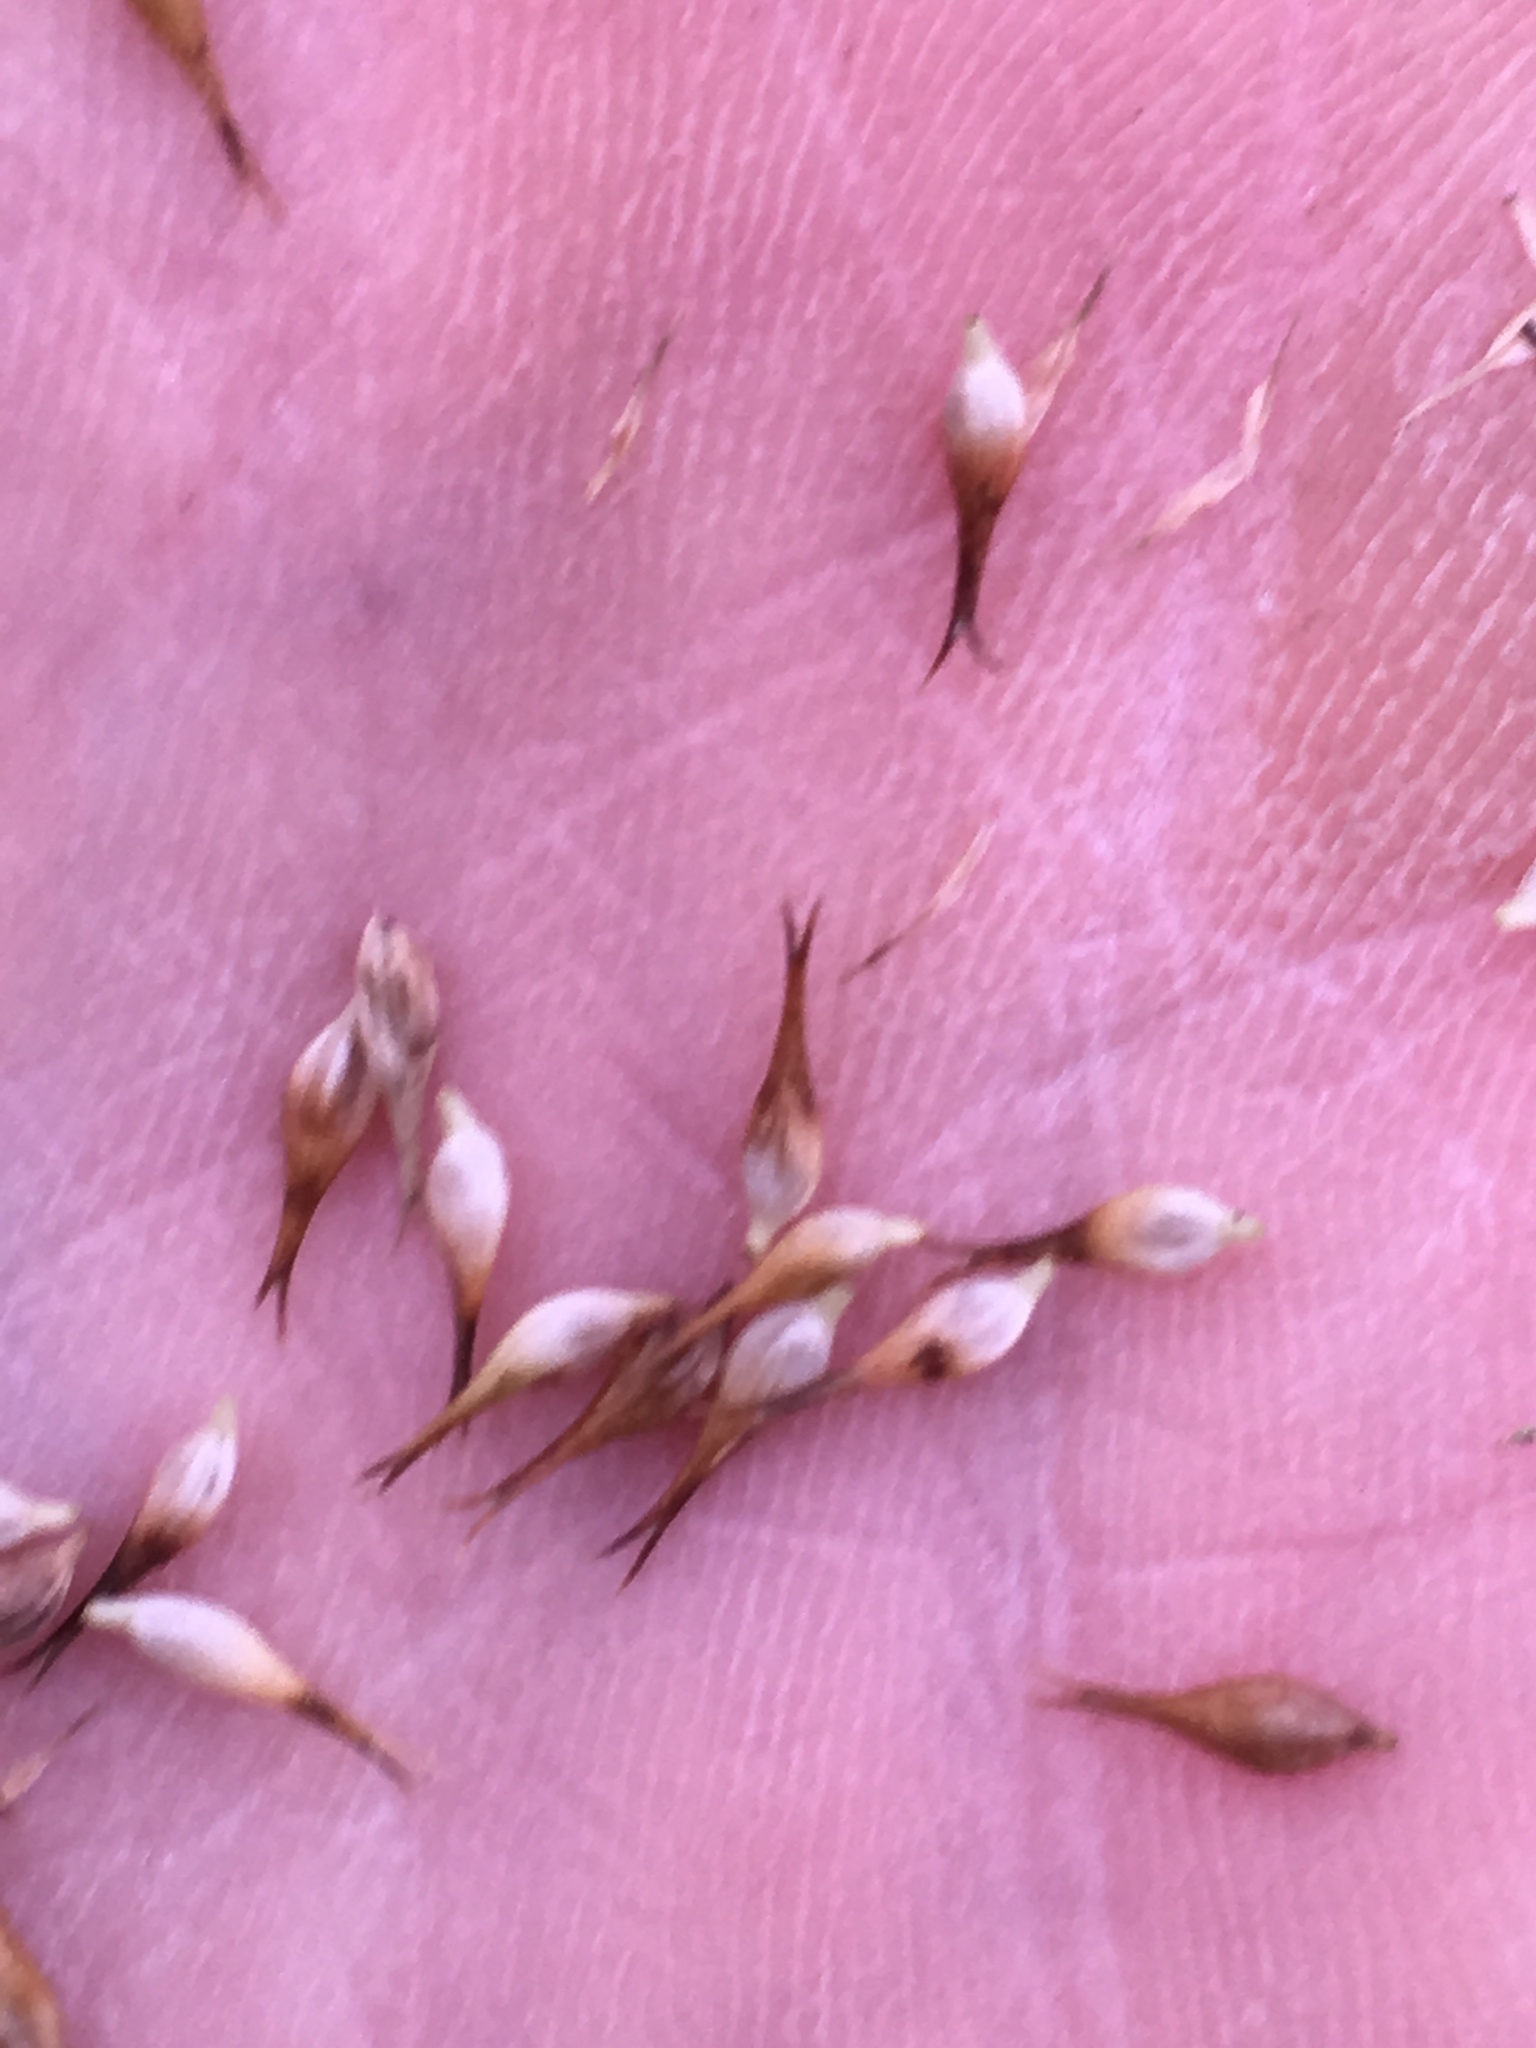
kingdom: Plantae
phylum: Tracheophyta
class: Liliopsida
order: Poales
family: Cyperaceae
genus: Carex
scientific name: Carex comosa
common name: Bristly sedge
